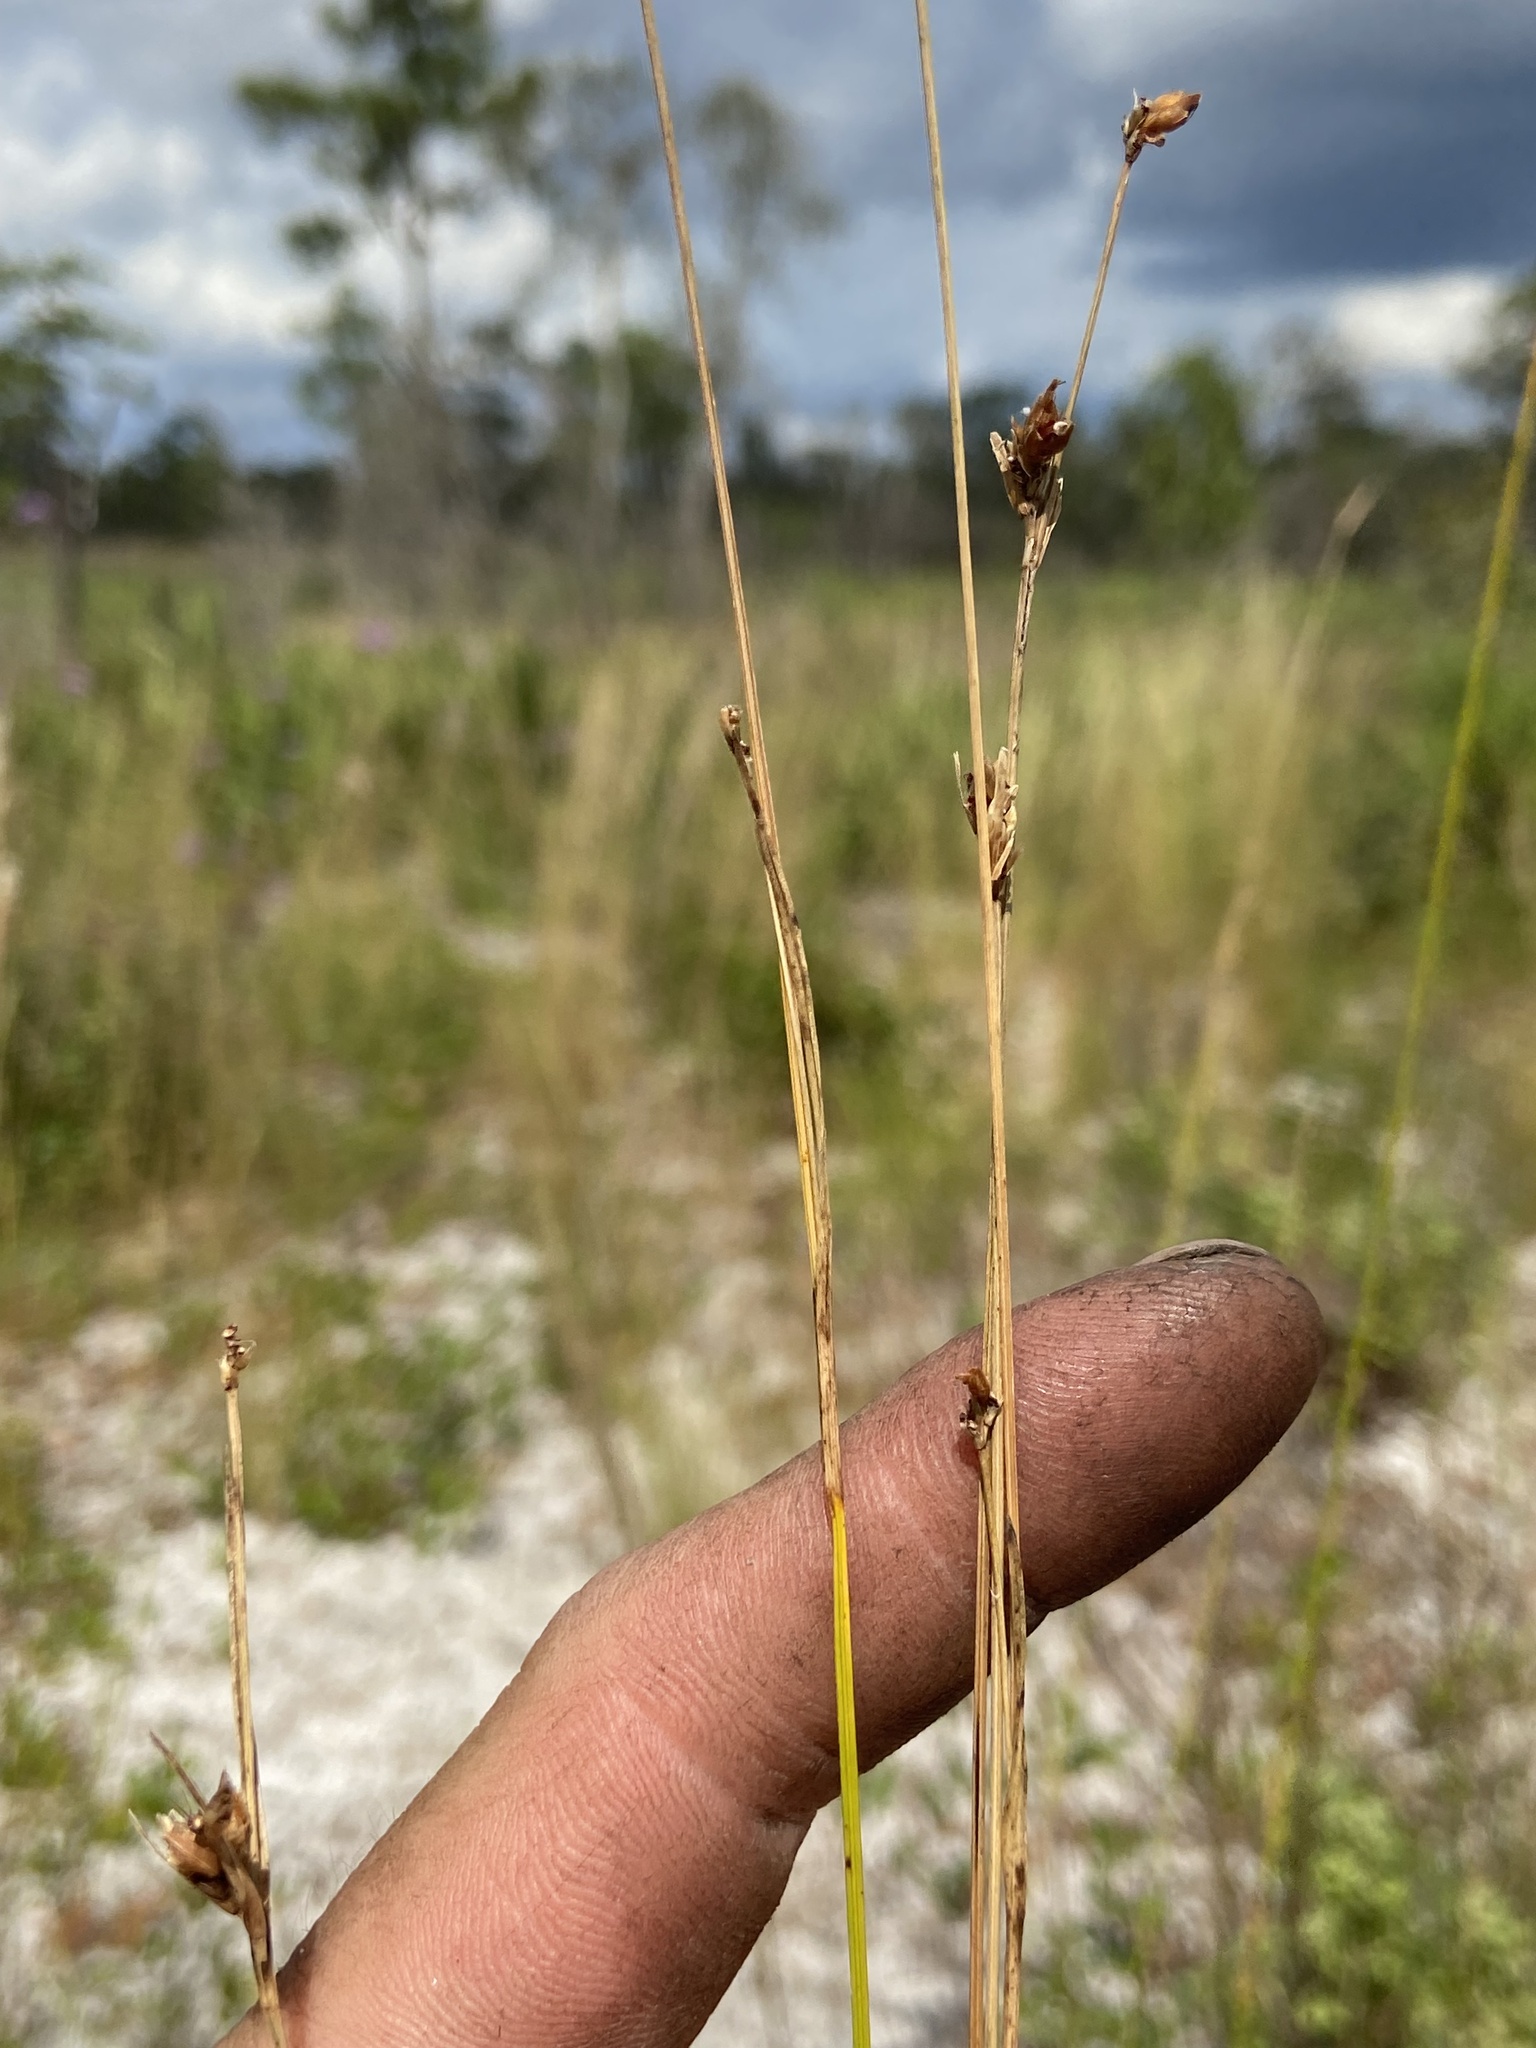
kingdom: Plantae
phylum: Tracheophyta
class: Liliopsida
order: Poales
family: Cyperaceae
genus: Rhynchospora
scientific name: Rhynchospora grayi
